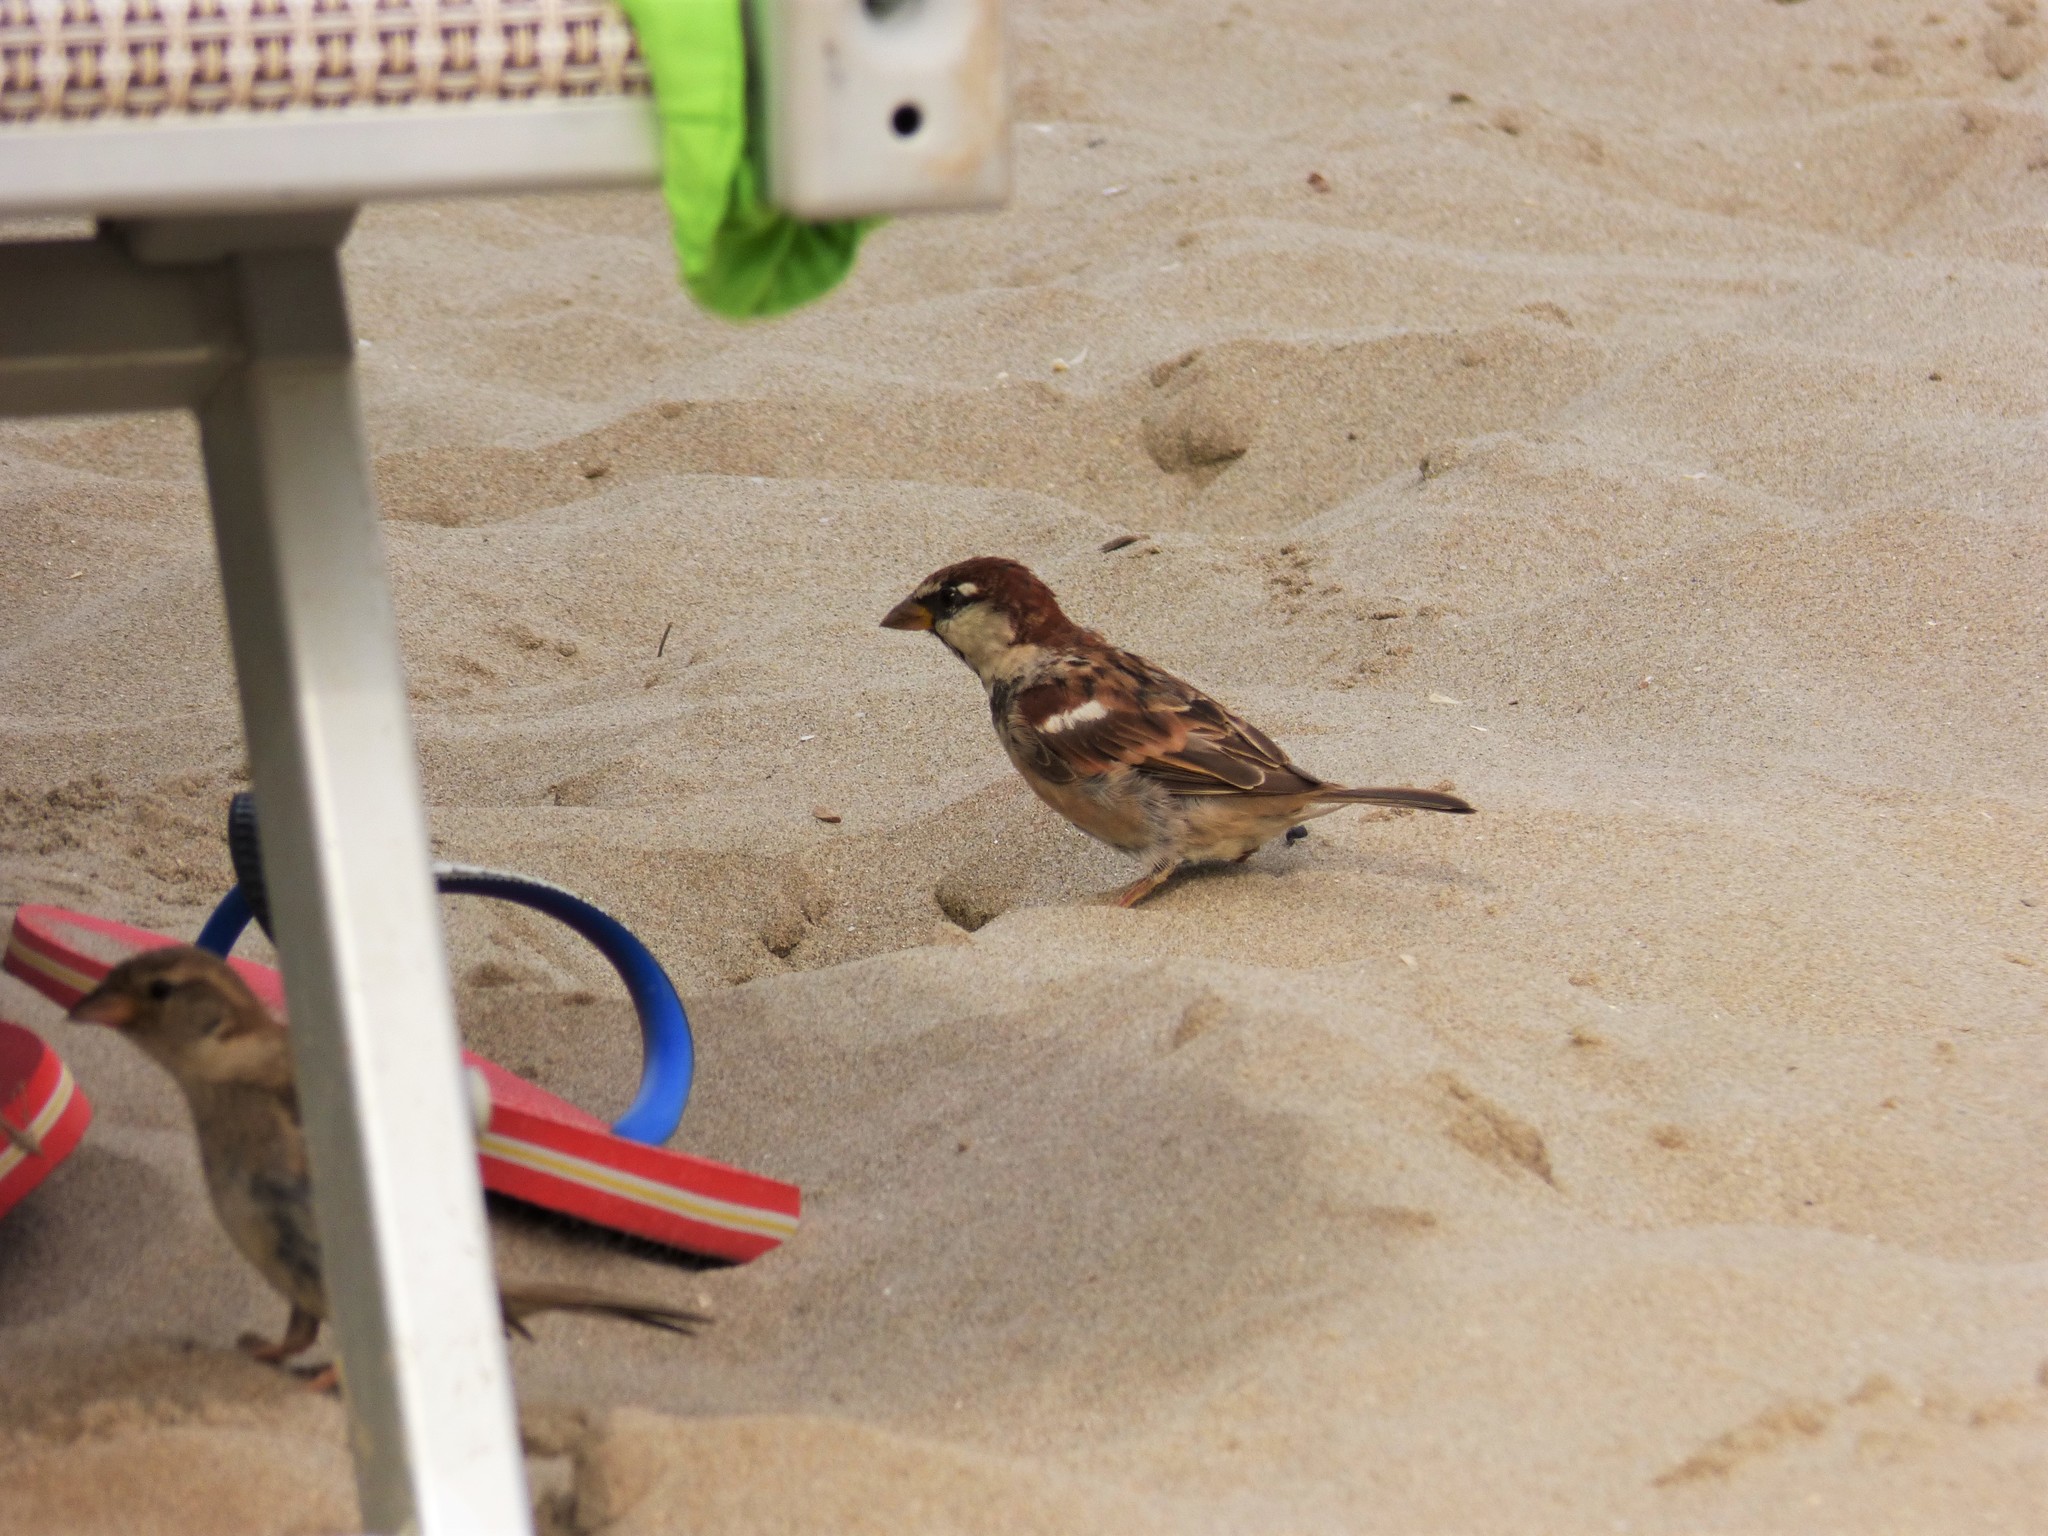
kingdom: Animalia
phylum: Chordata
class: Aves
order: Passeriformes
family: Passeridae
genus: Passer
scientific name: Passer italiae
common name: Italian sparrow
